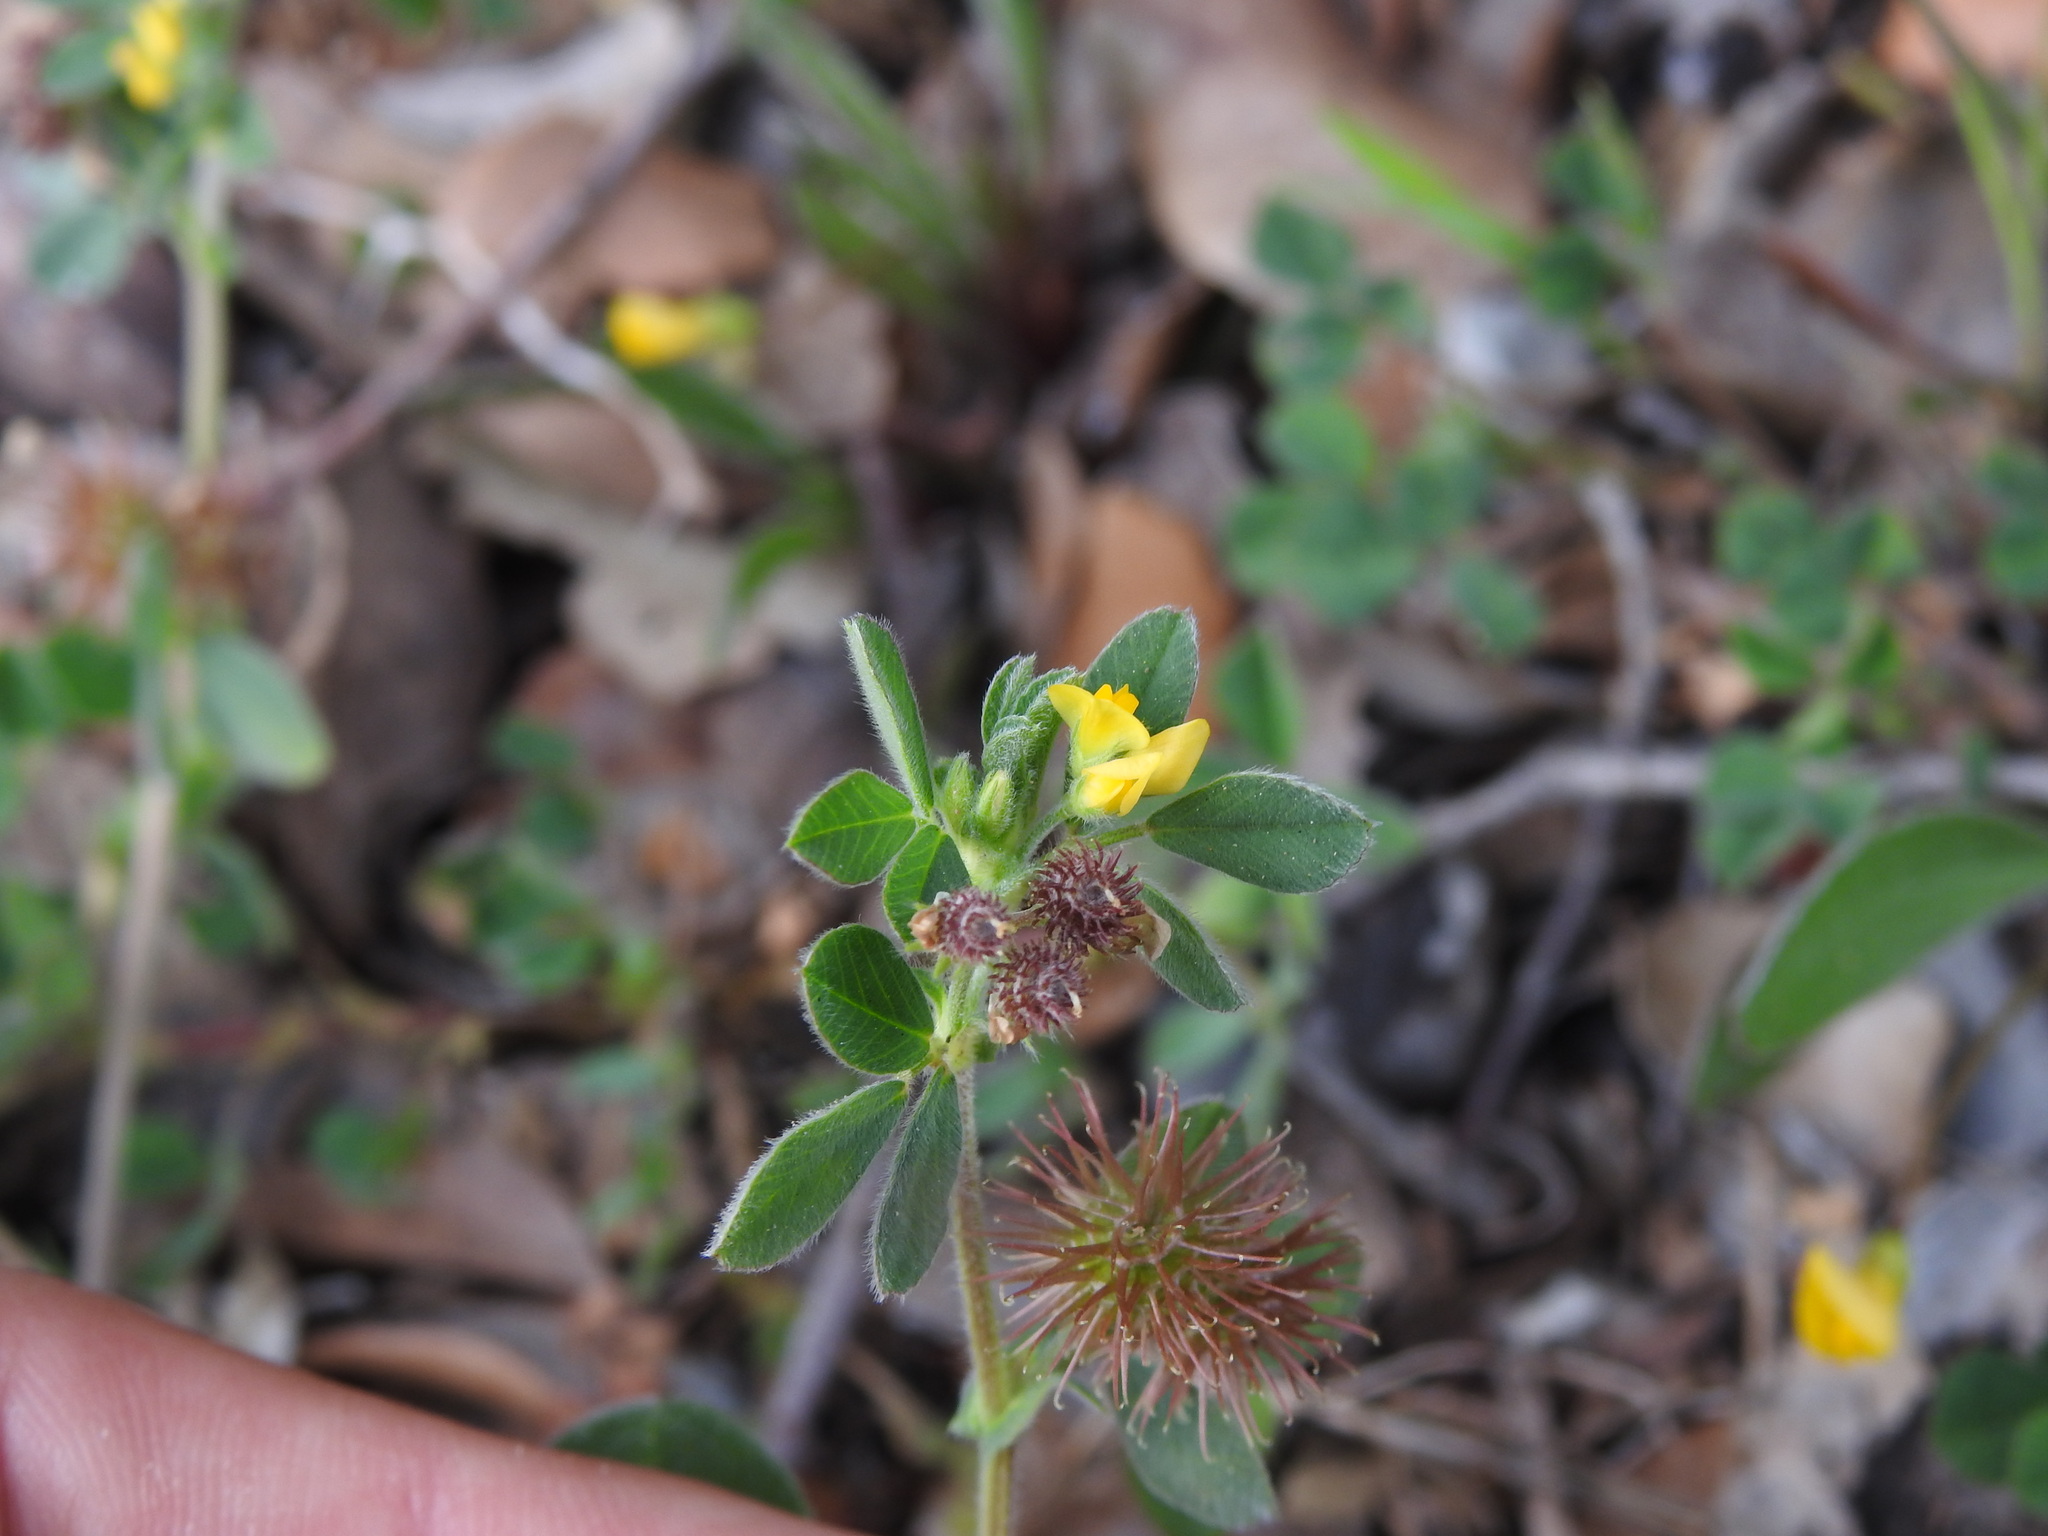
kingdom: Plantae
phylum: Tracheophyta
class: Magnoliopsida
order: Fabales
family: Fabaceae
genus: Medicago
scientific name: Medicago minima
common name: Little bur-clover
